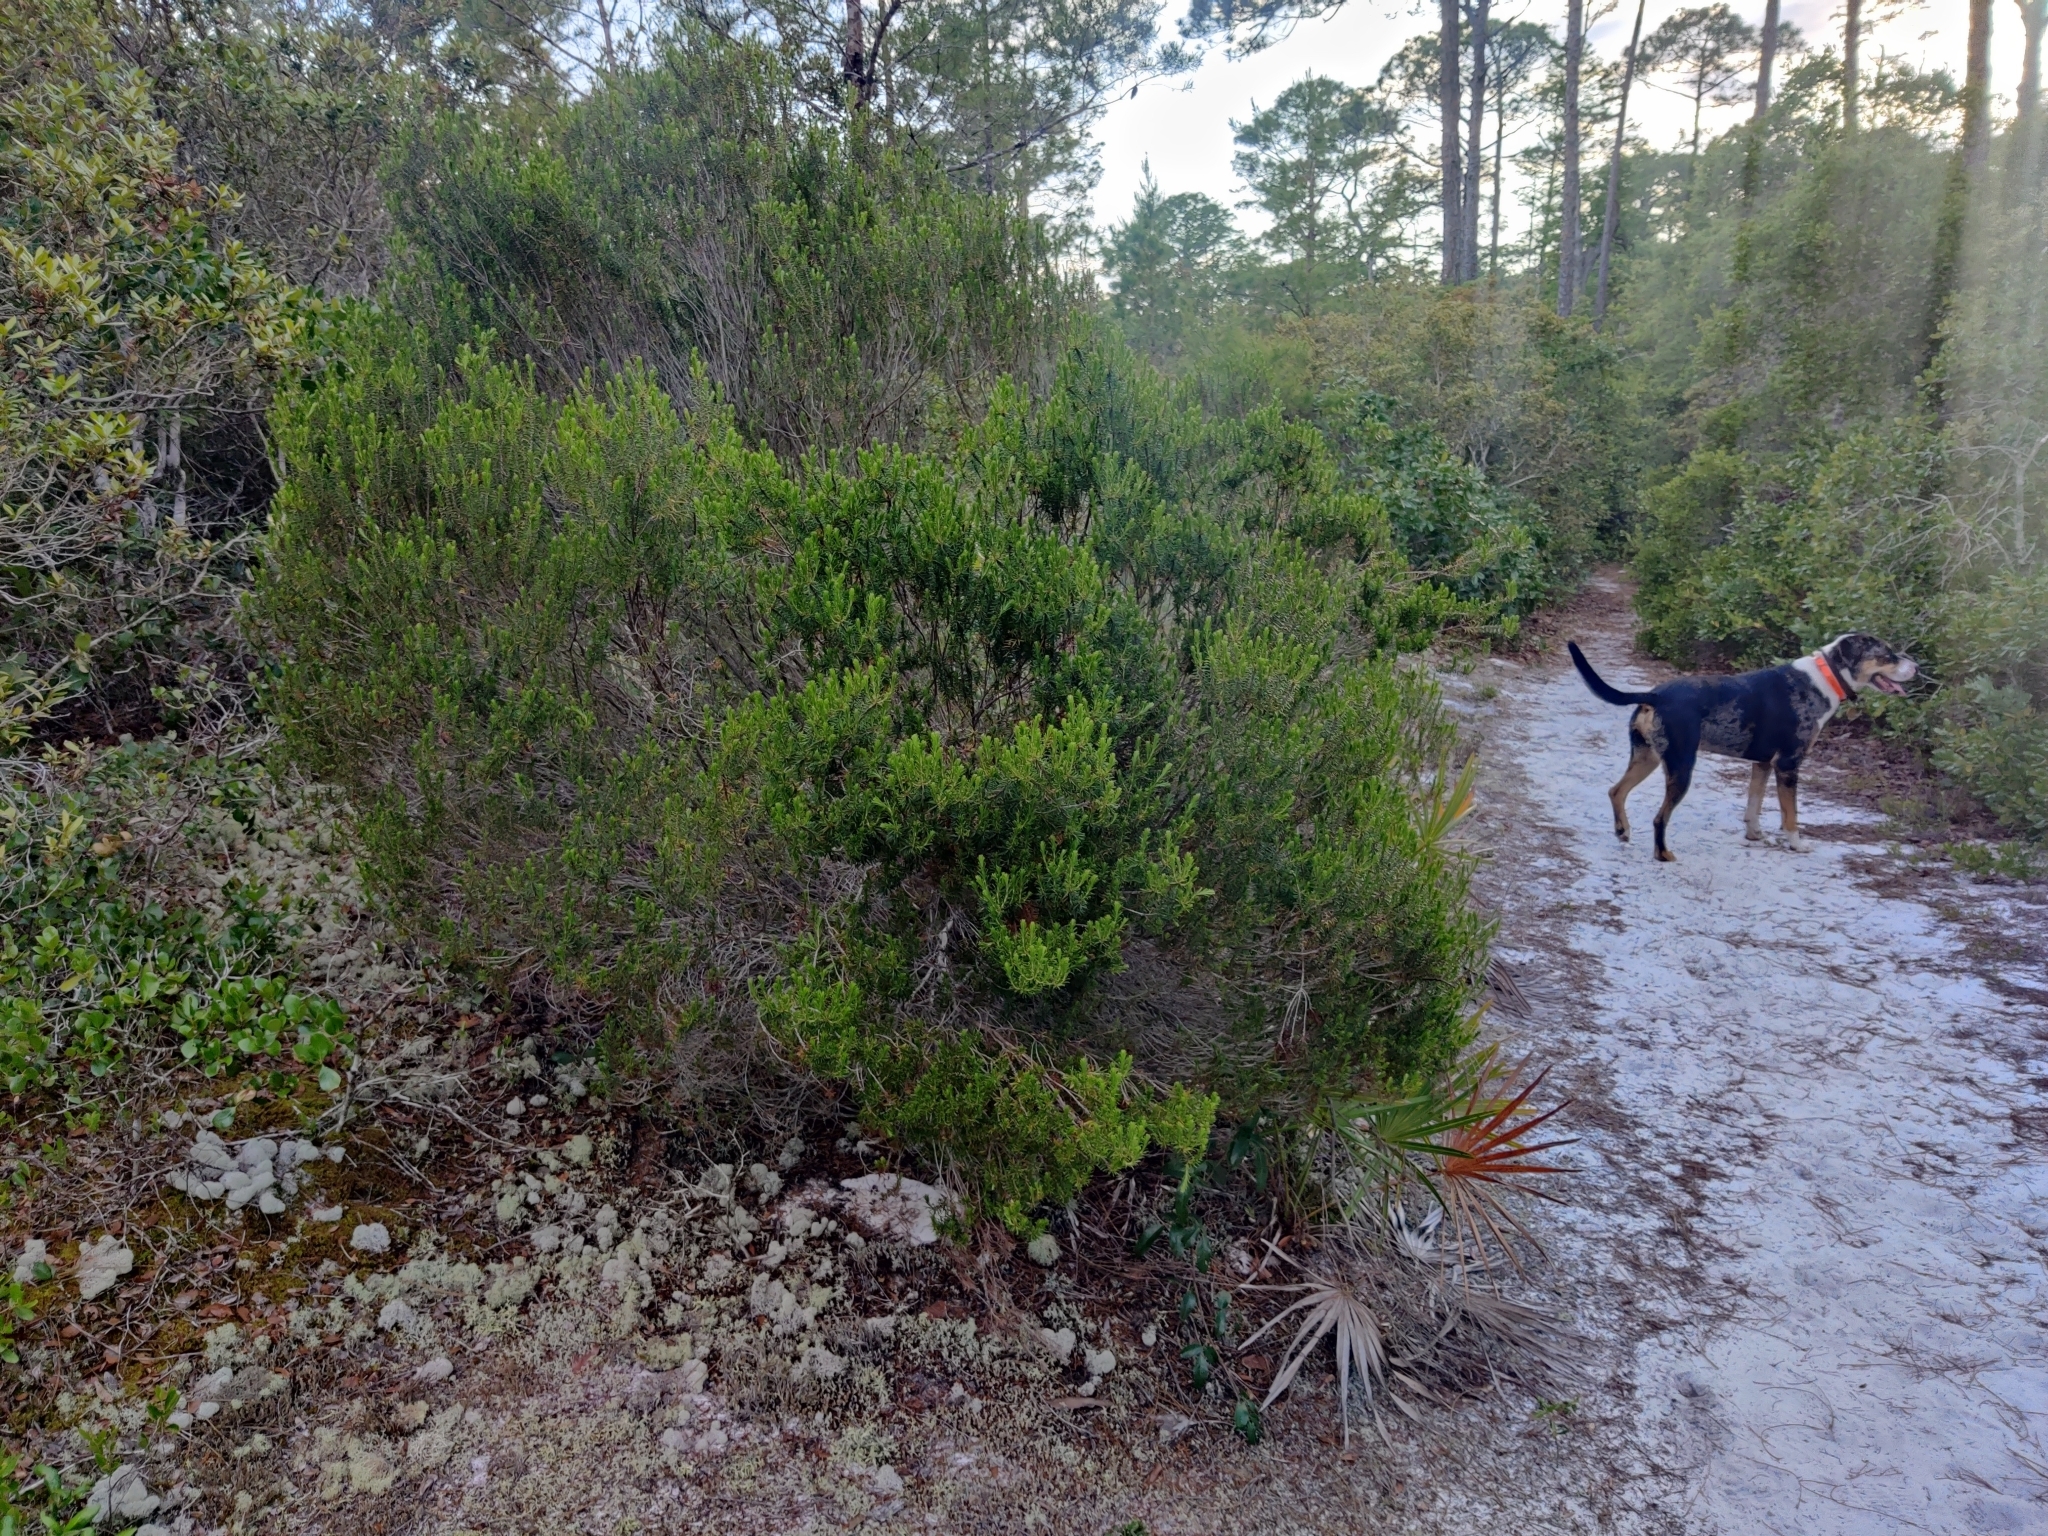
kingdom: Plantae
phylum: Tracheophyta
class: Magnoliopsida
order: Ericales
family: Ericaceae
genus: Ceratiola
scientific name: Ceratiola ericoides
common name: Sandhill-rosemary
